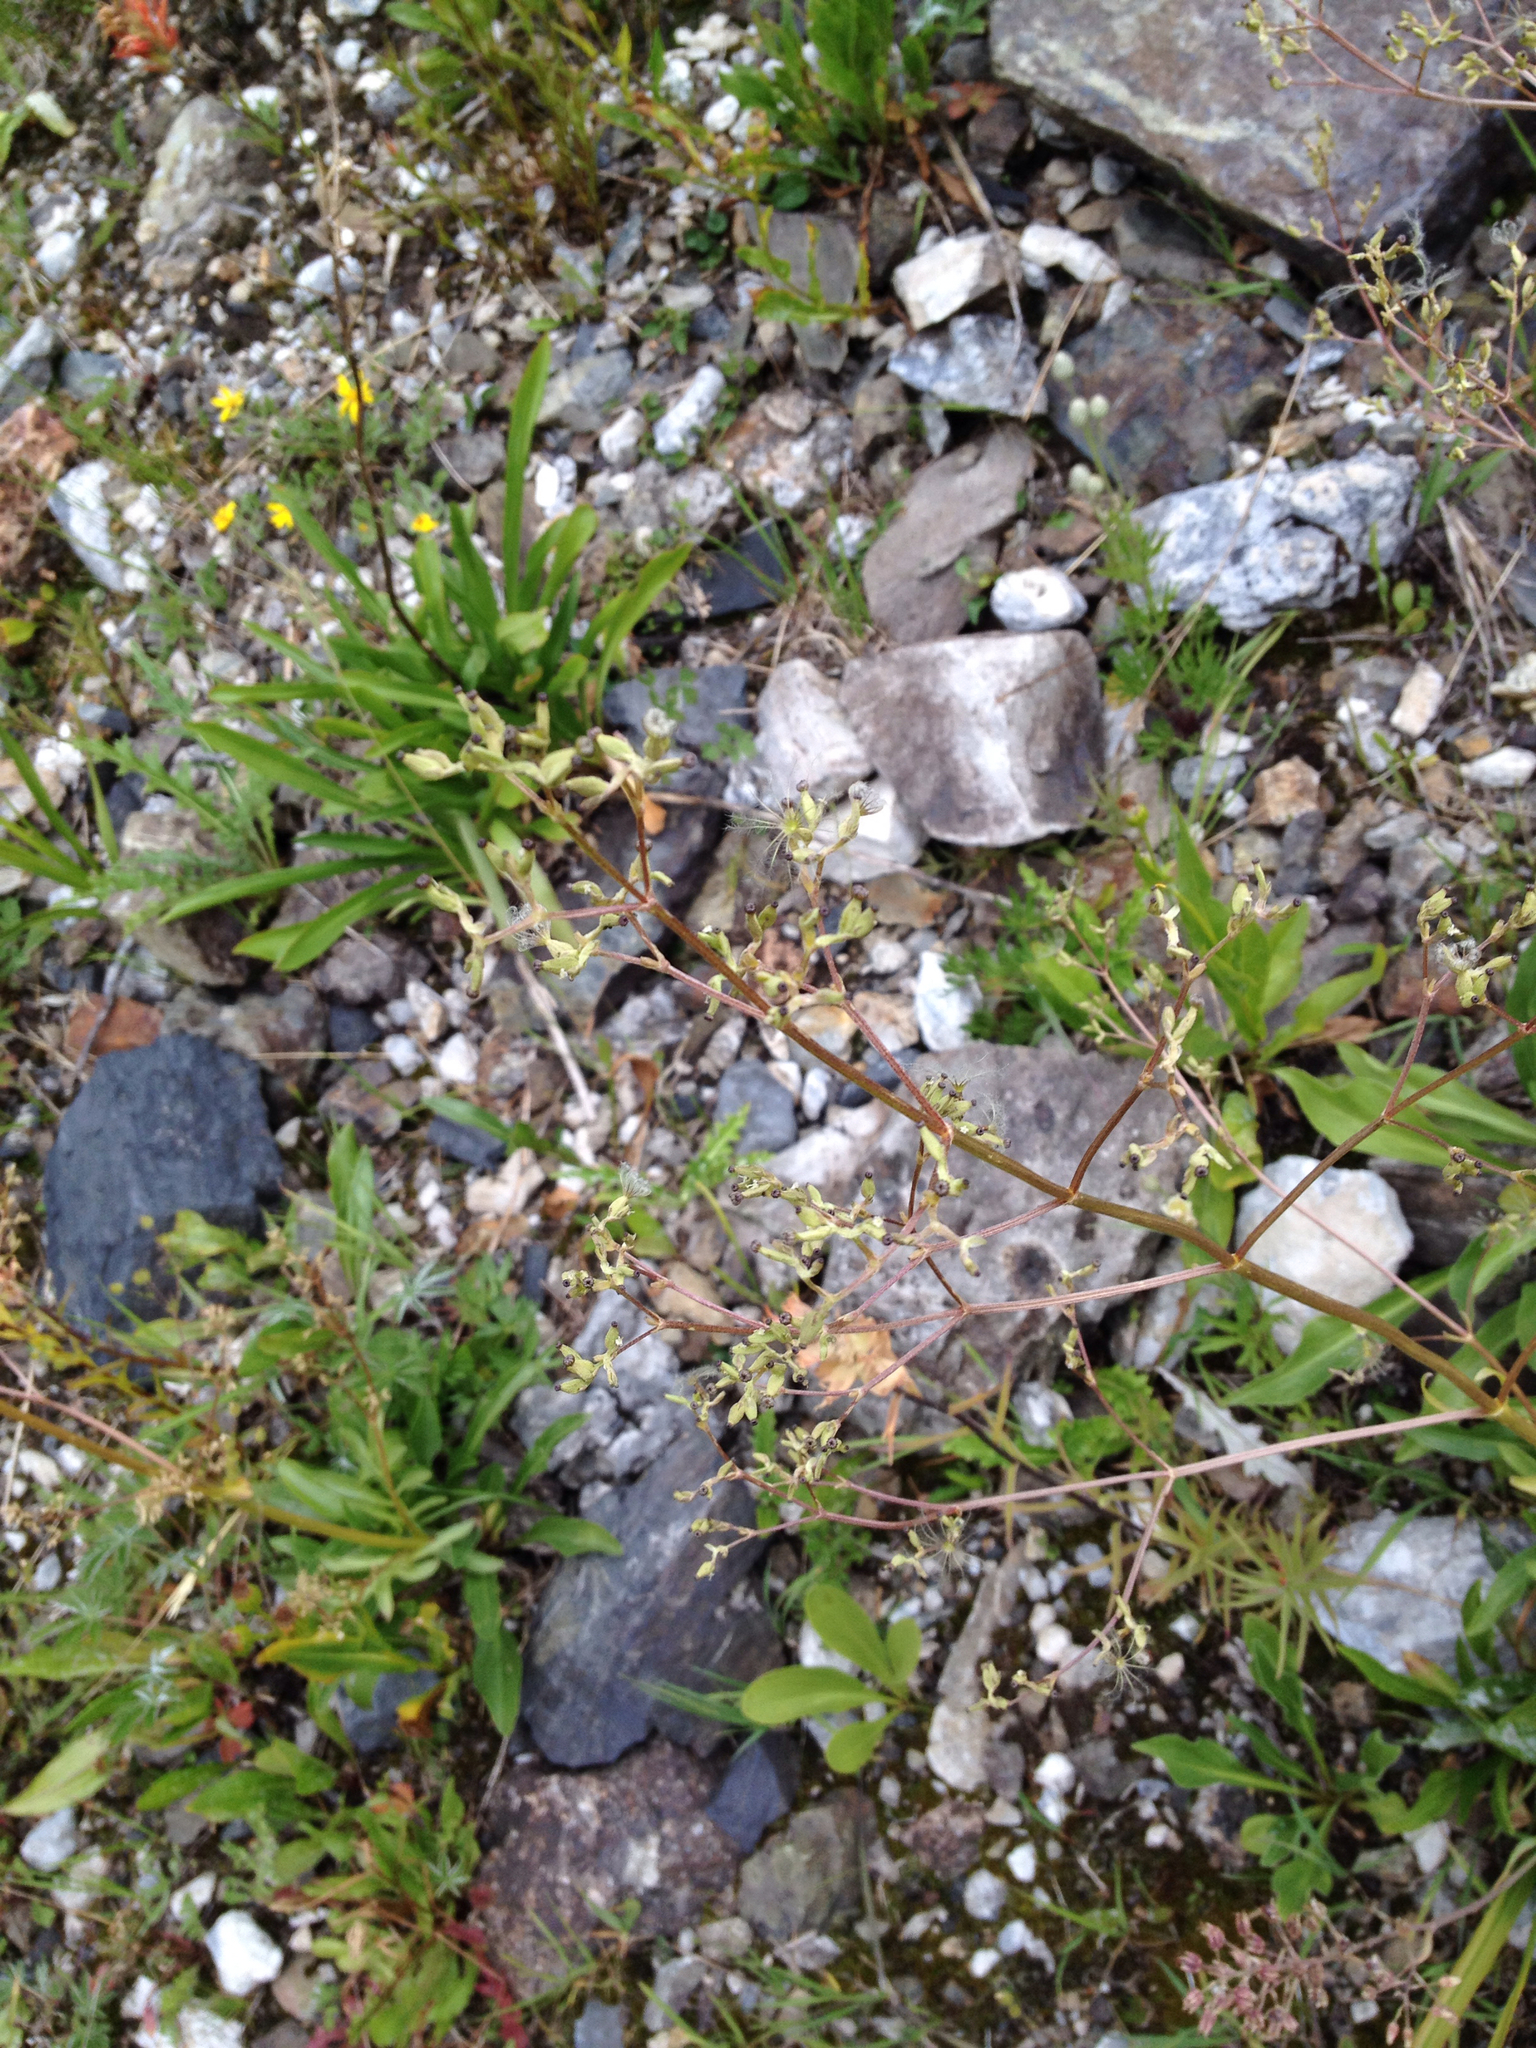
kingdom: Plantae
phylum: Tracheophyta
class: Magnoliopsida
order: Dipsacales
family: Caprifoliaceae
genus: Valeriana
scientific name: Valeriana edulis
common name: Taproot valerian
